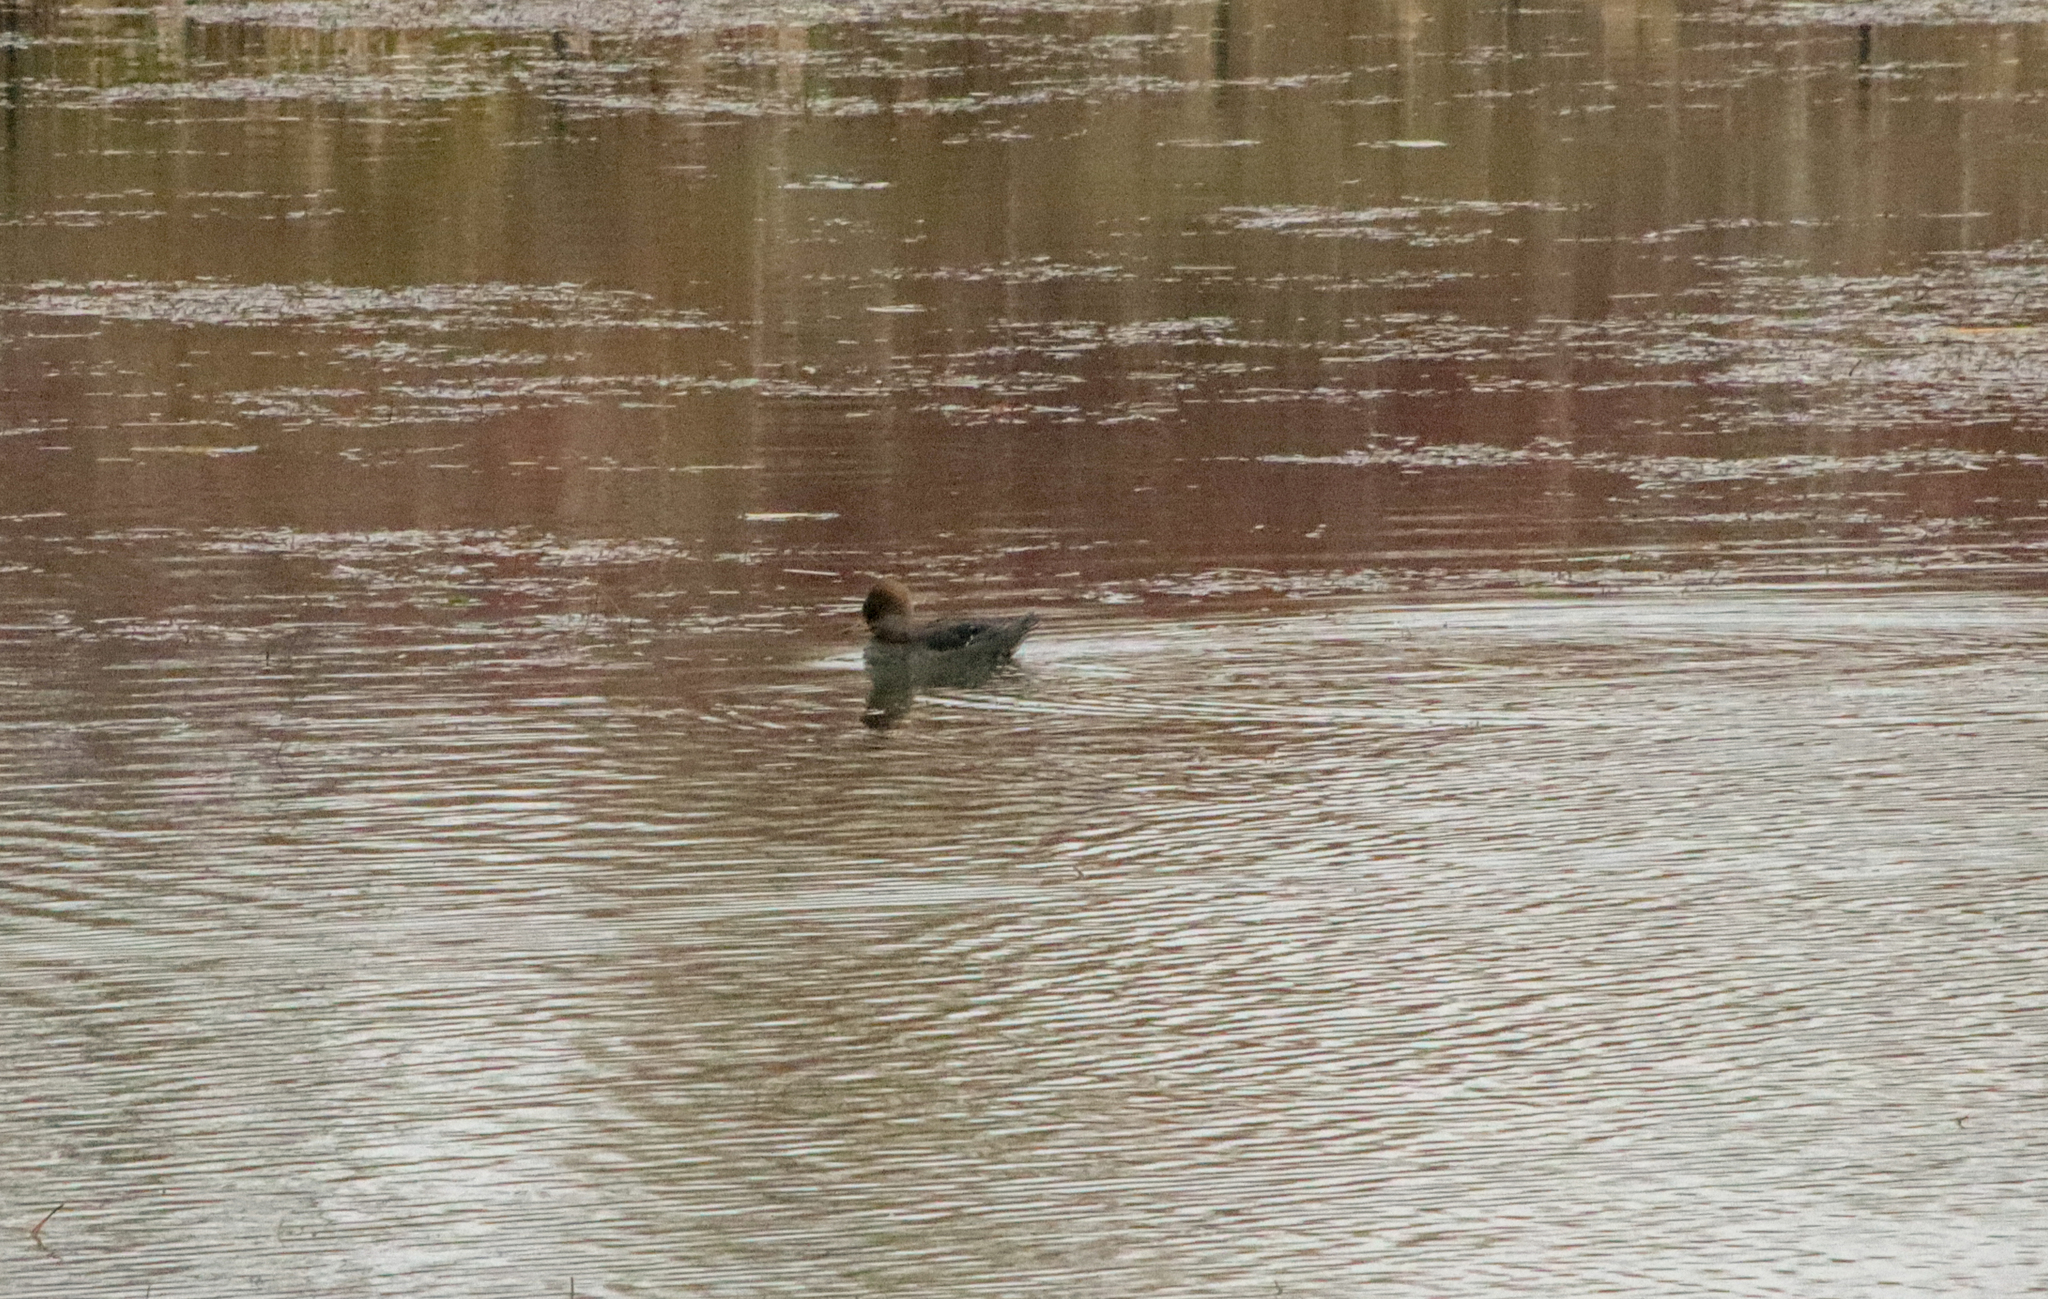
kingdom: Animalia
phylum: Chordata
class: Aves
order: Anseriformes
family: Anatidae
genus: Lophodytes
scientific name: Lophodytes cucullatus
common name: Hooded merganser
